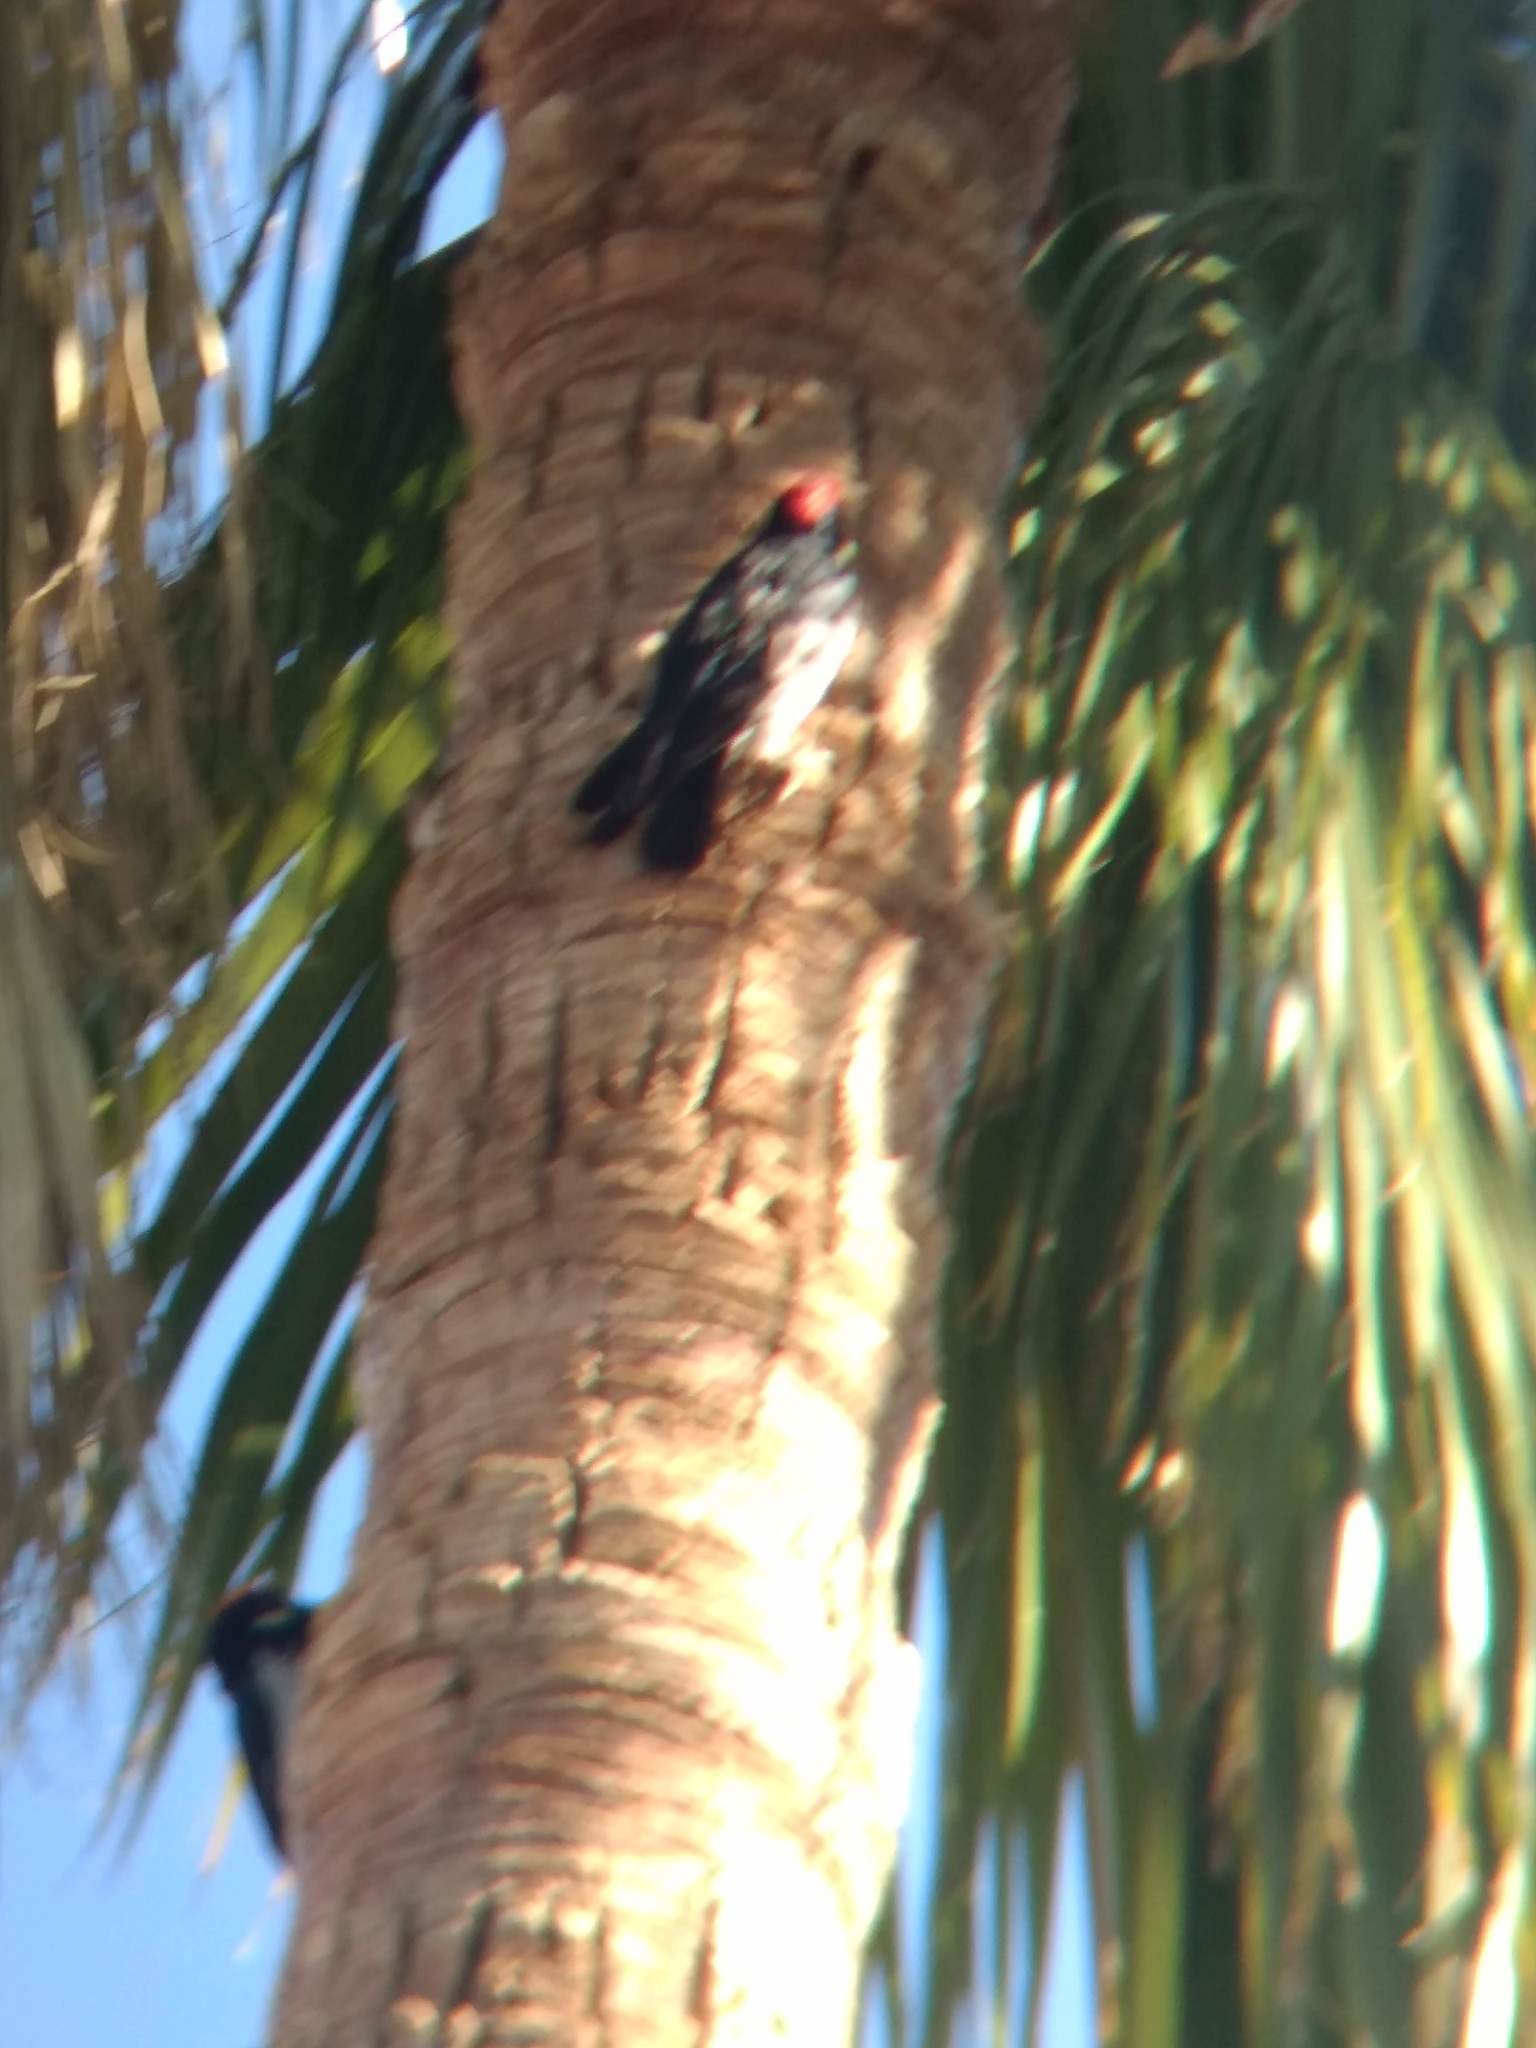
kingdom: Animalia
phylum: Chordata
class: Aves
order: Piciformes
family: Picidae
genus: Melanerpes
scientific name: Melanerpes formicivorus
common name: Acorn woodpecker
